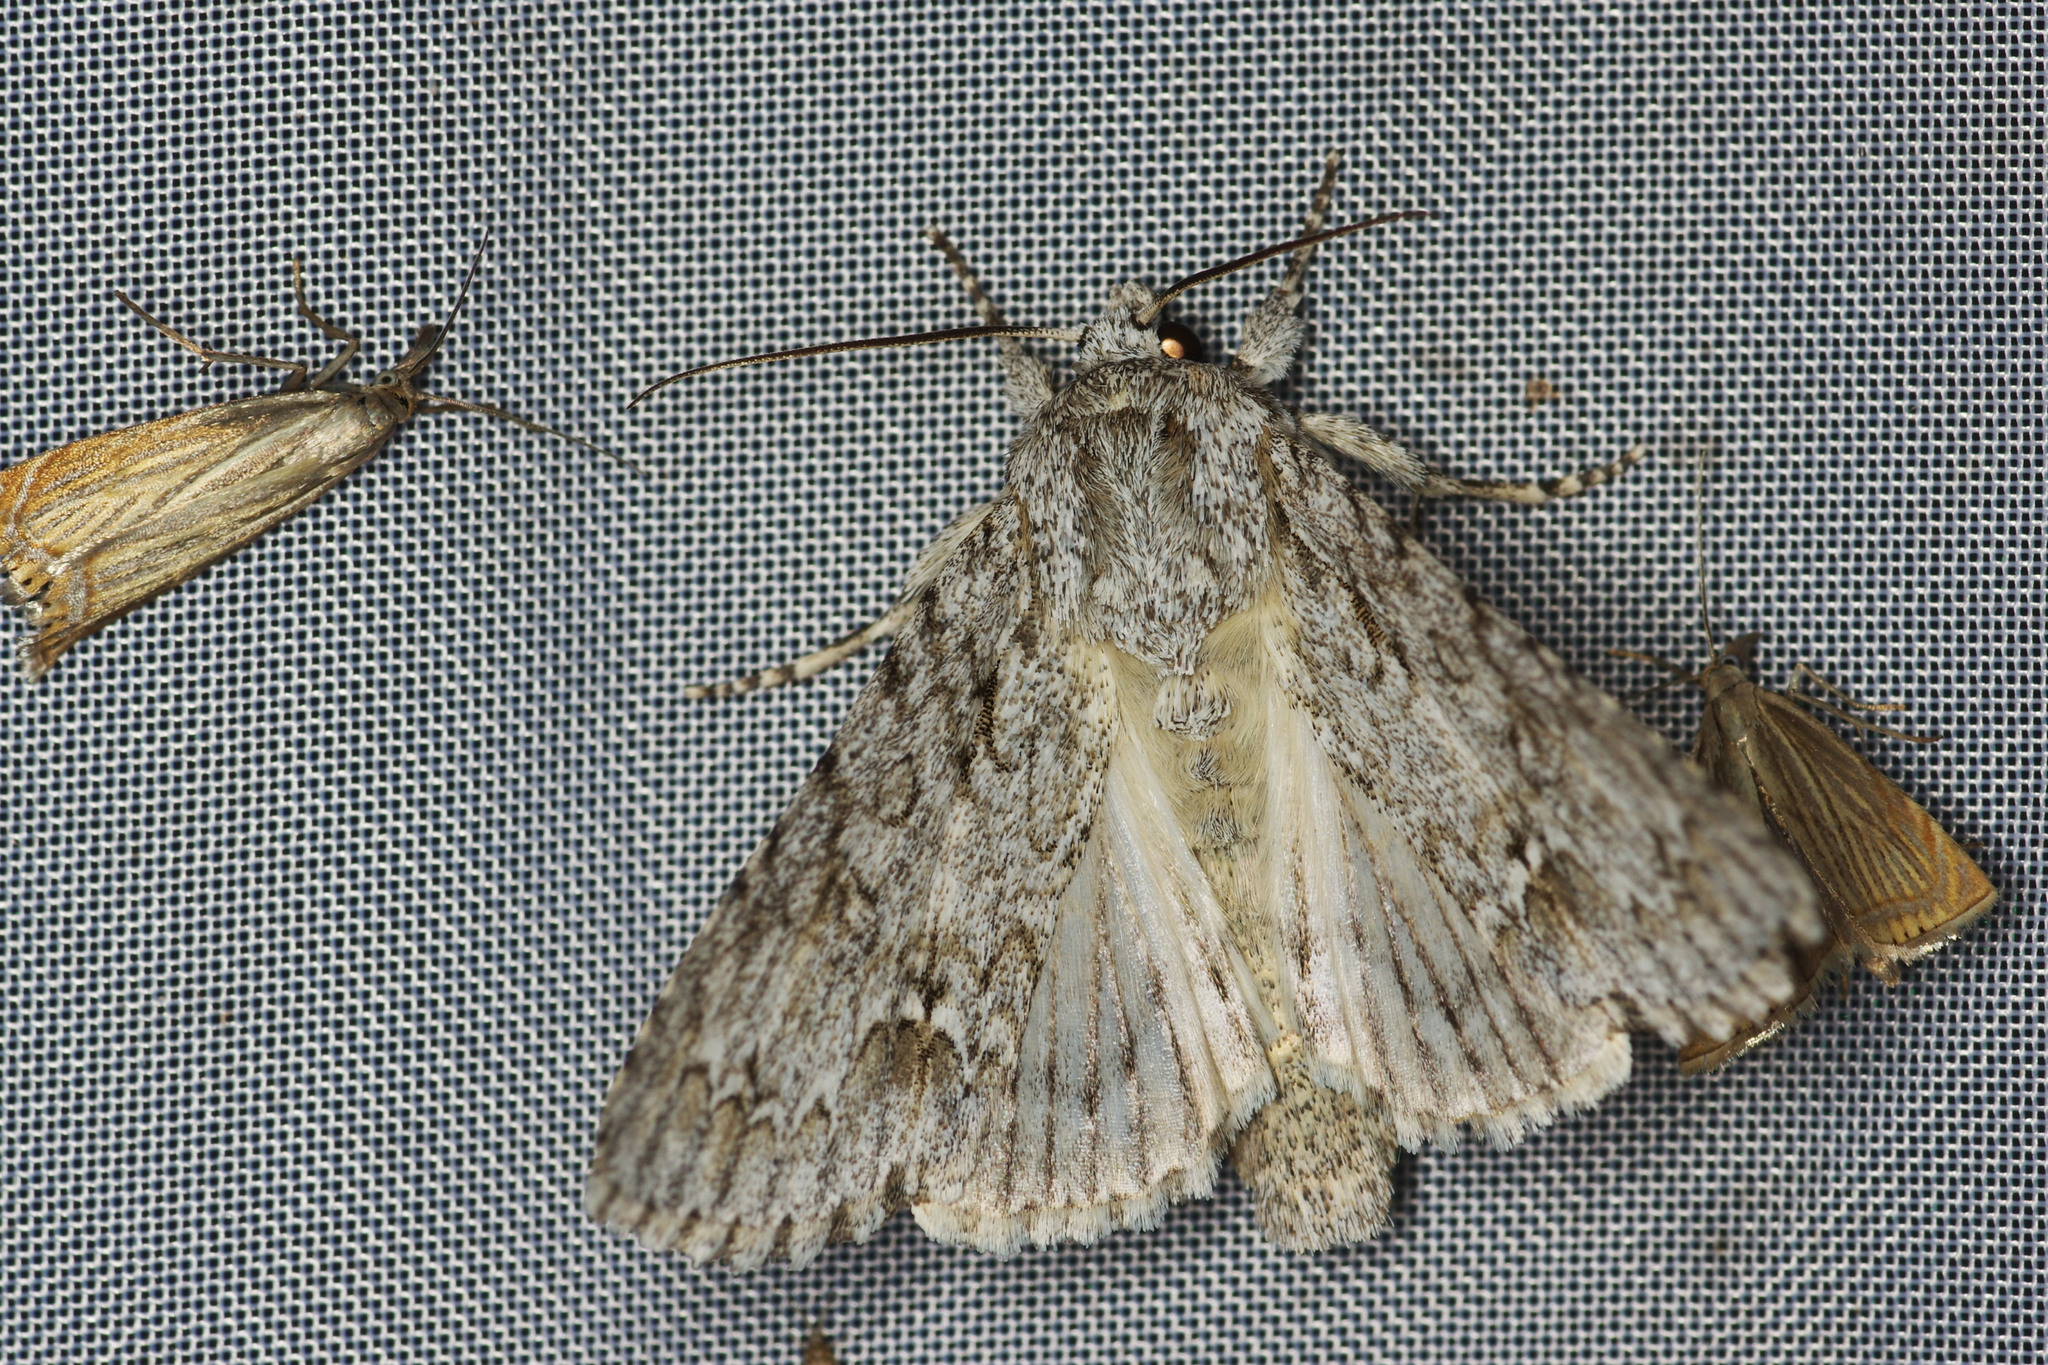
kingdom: Animalia
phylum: Arthropoda
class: Insecta
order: Lepidoptera
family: Noctuidae
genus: Acronicta
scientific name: Acronicta aceris
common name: Sycamore
